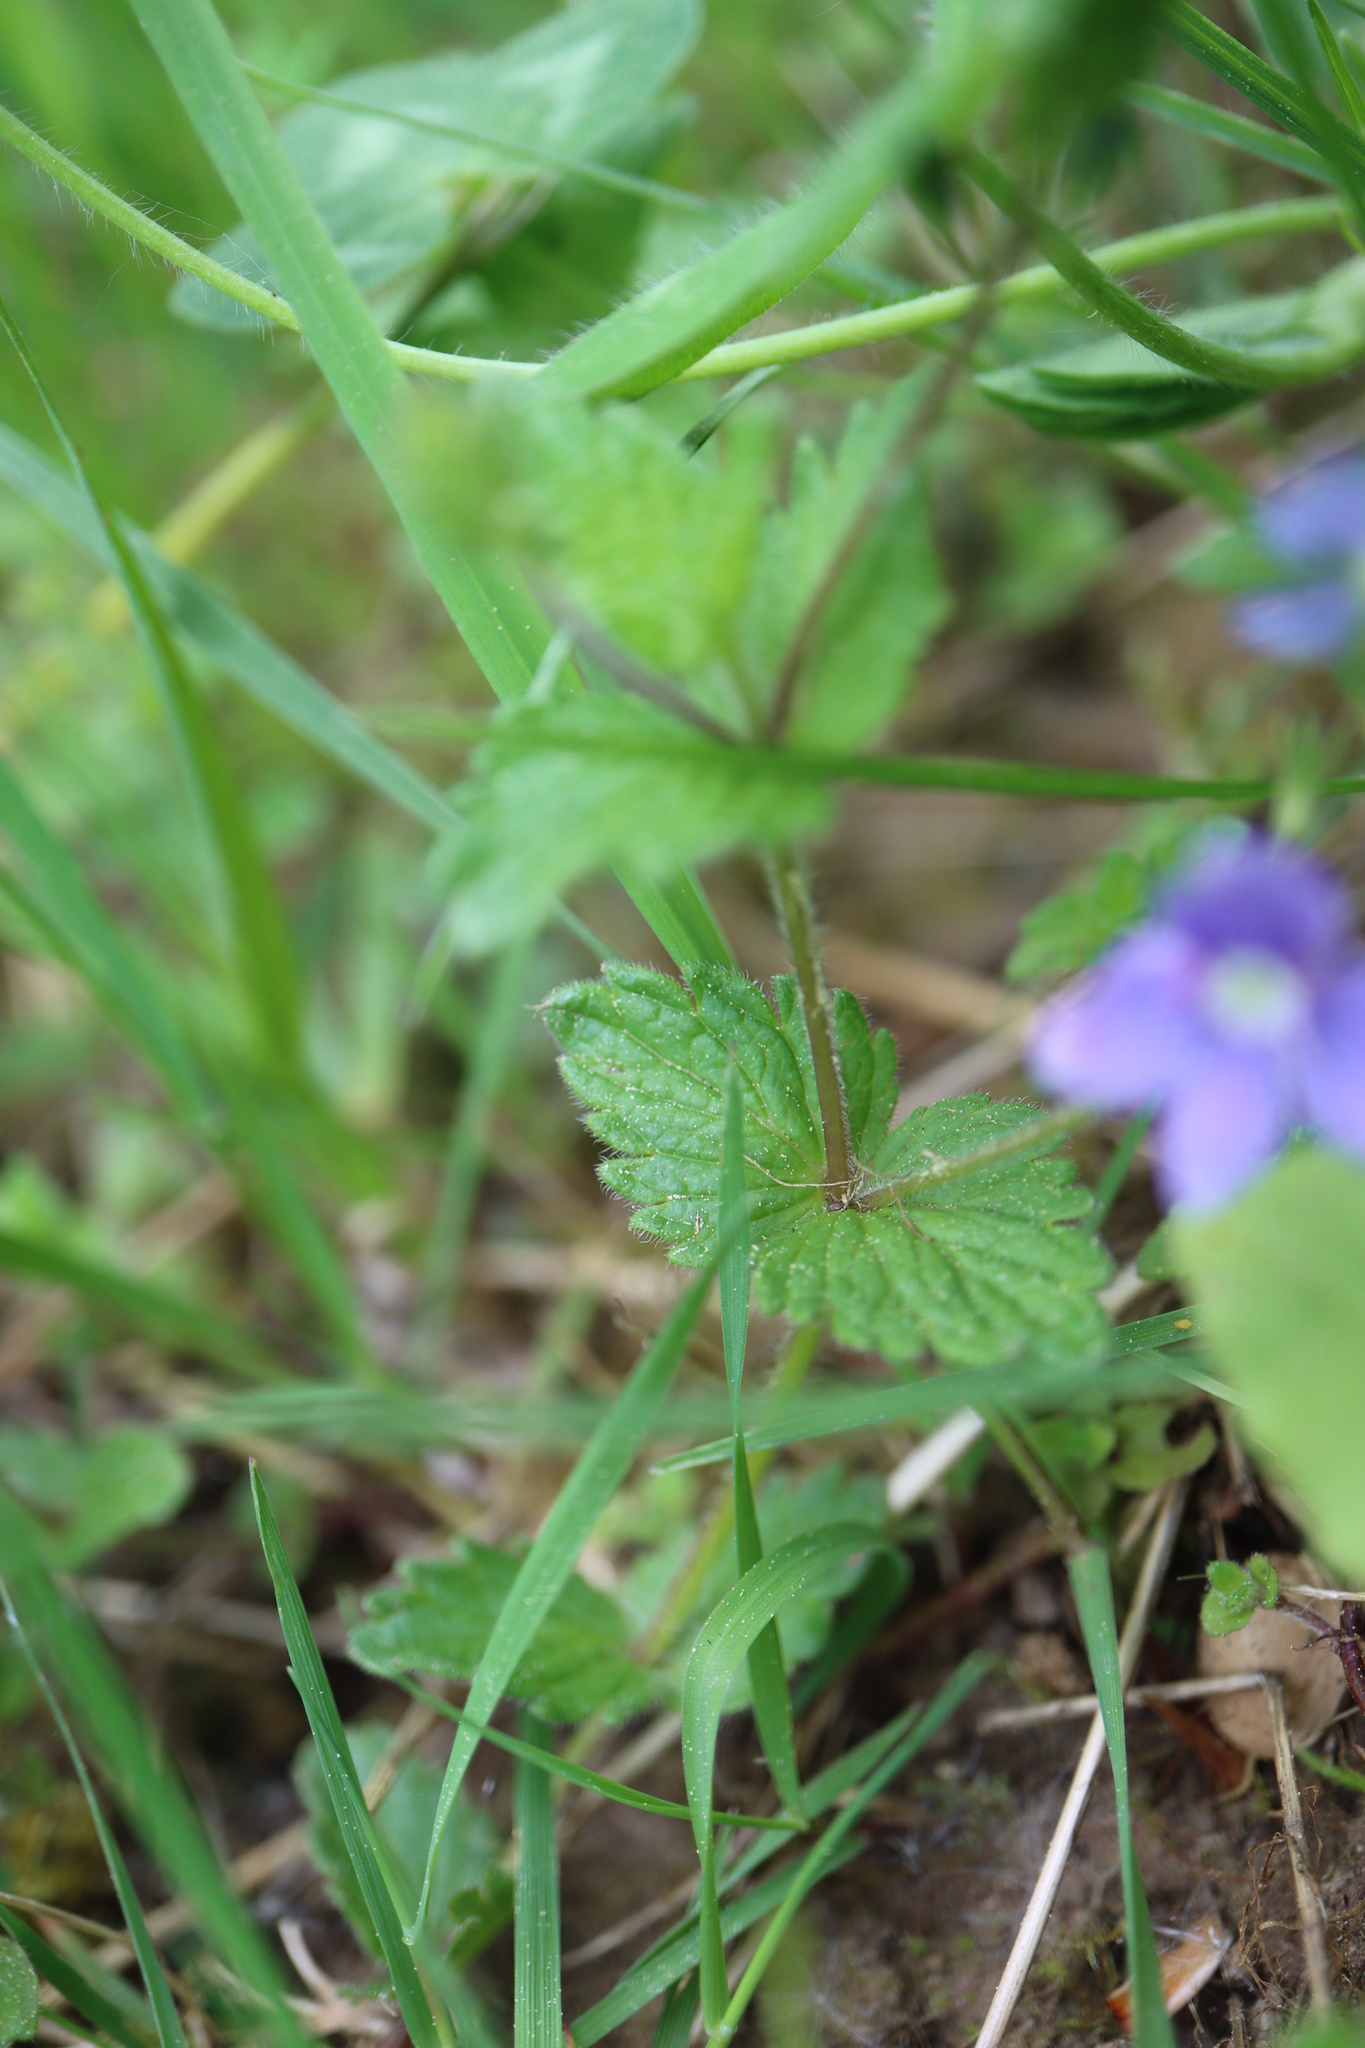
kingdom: Plantae
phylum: Tracheophyta
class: Magnoliopsida
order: Lamiales
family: Plantaginaceae
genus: Veronica
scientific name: Veronica chamaedrys
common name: Germander speedwell
